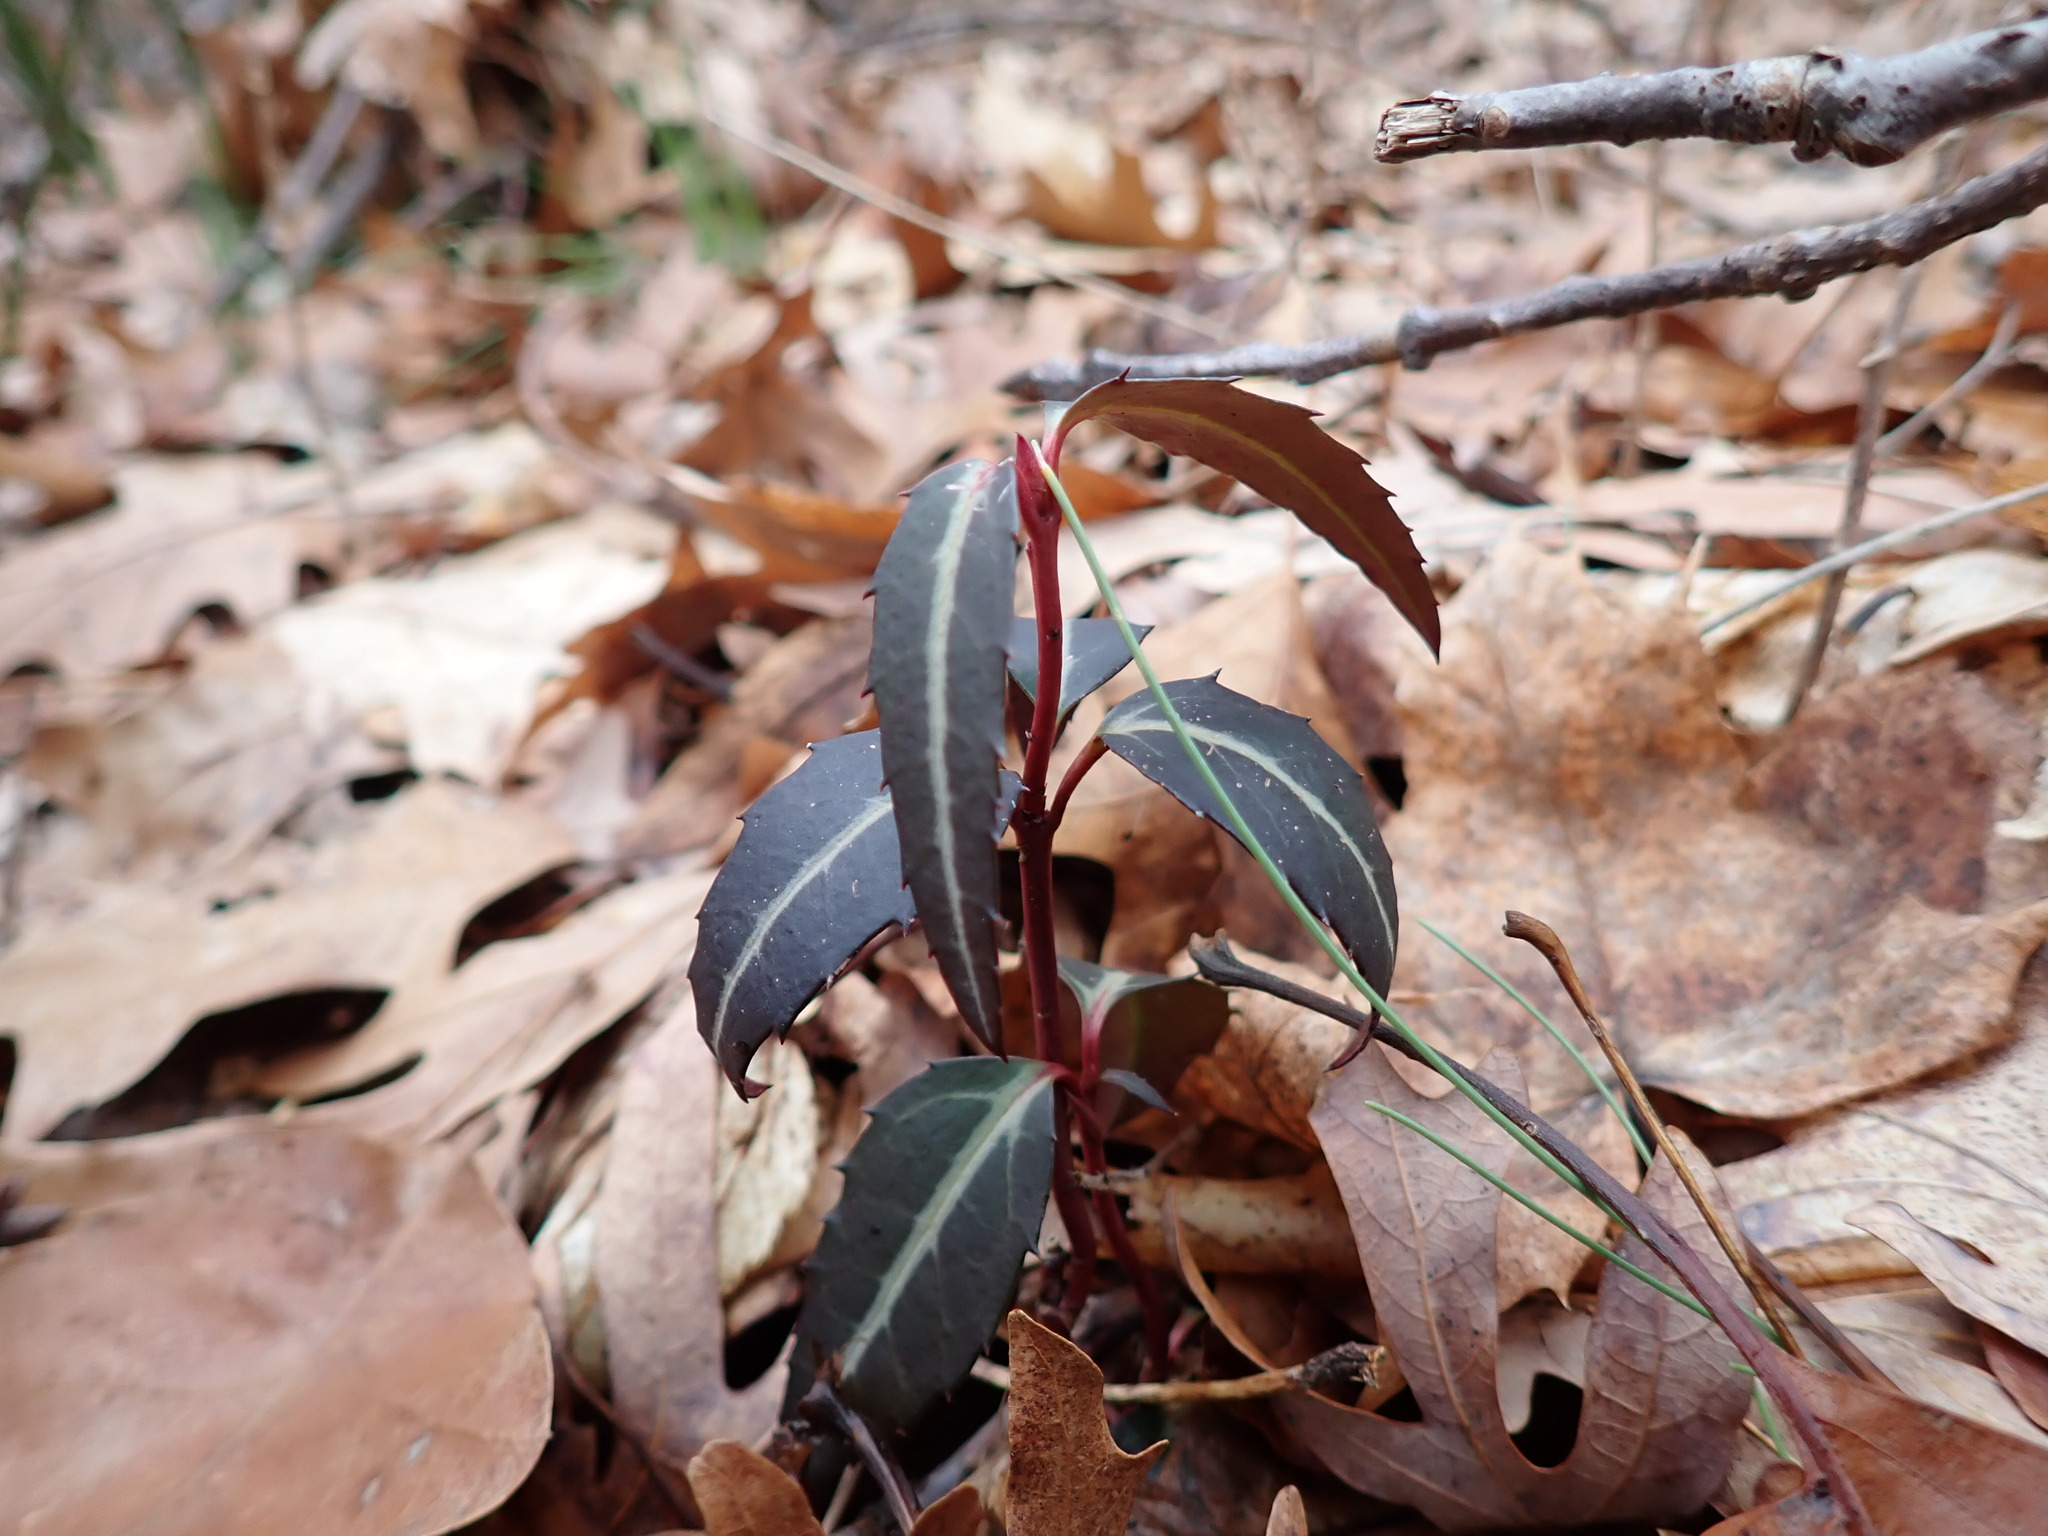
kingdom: Plantae
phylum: Tracheophyta
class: Magnoliopsida
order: Ericales
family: Ericaceae
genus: Chimaphila
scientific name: Chimaphila maculata
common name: Spotted pipsissewa
